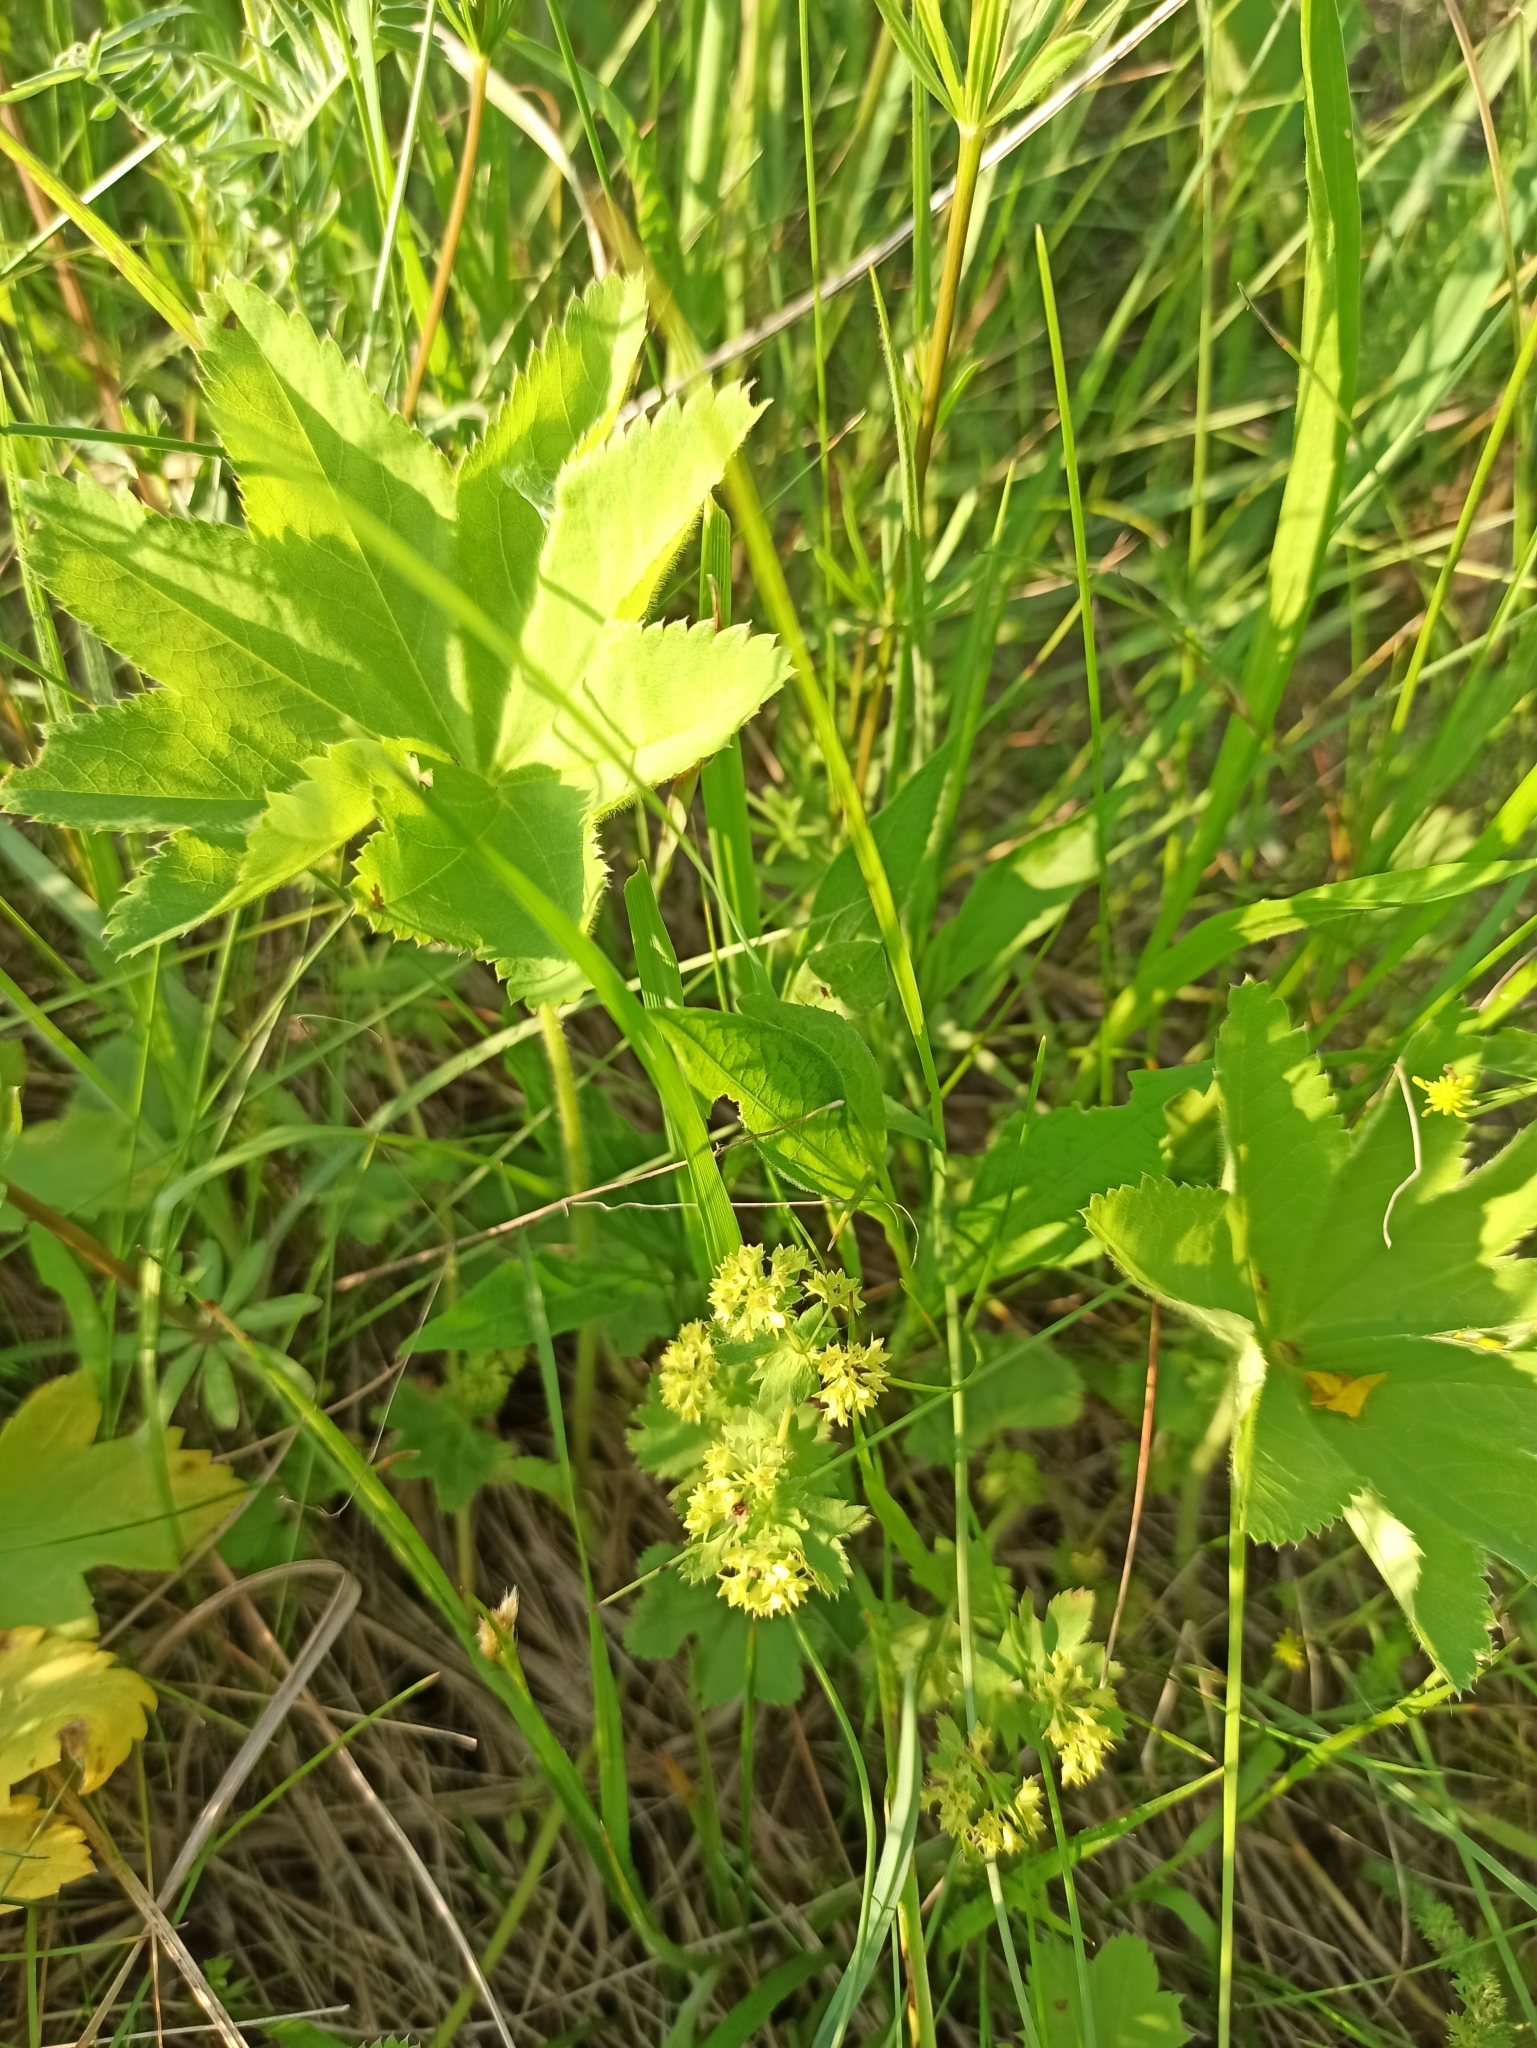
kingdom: Plantae
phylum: Tracheophyta
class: Magnoliopsida
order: Rosales
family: Rosaceae
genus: Alchemilla
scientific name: Alchemilla vulgaris
